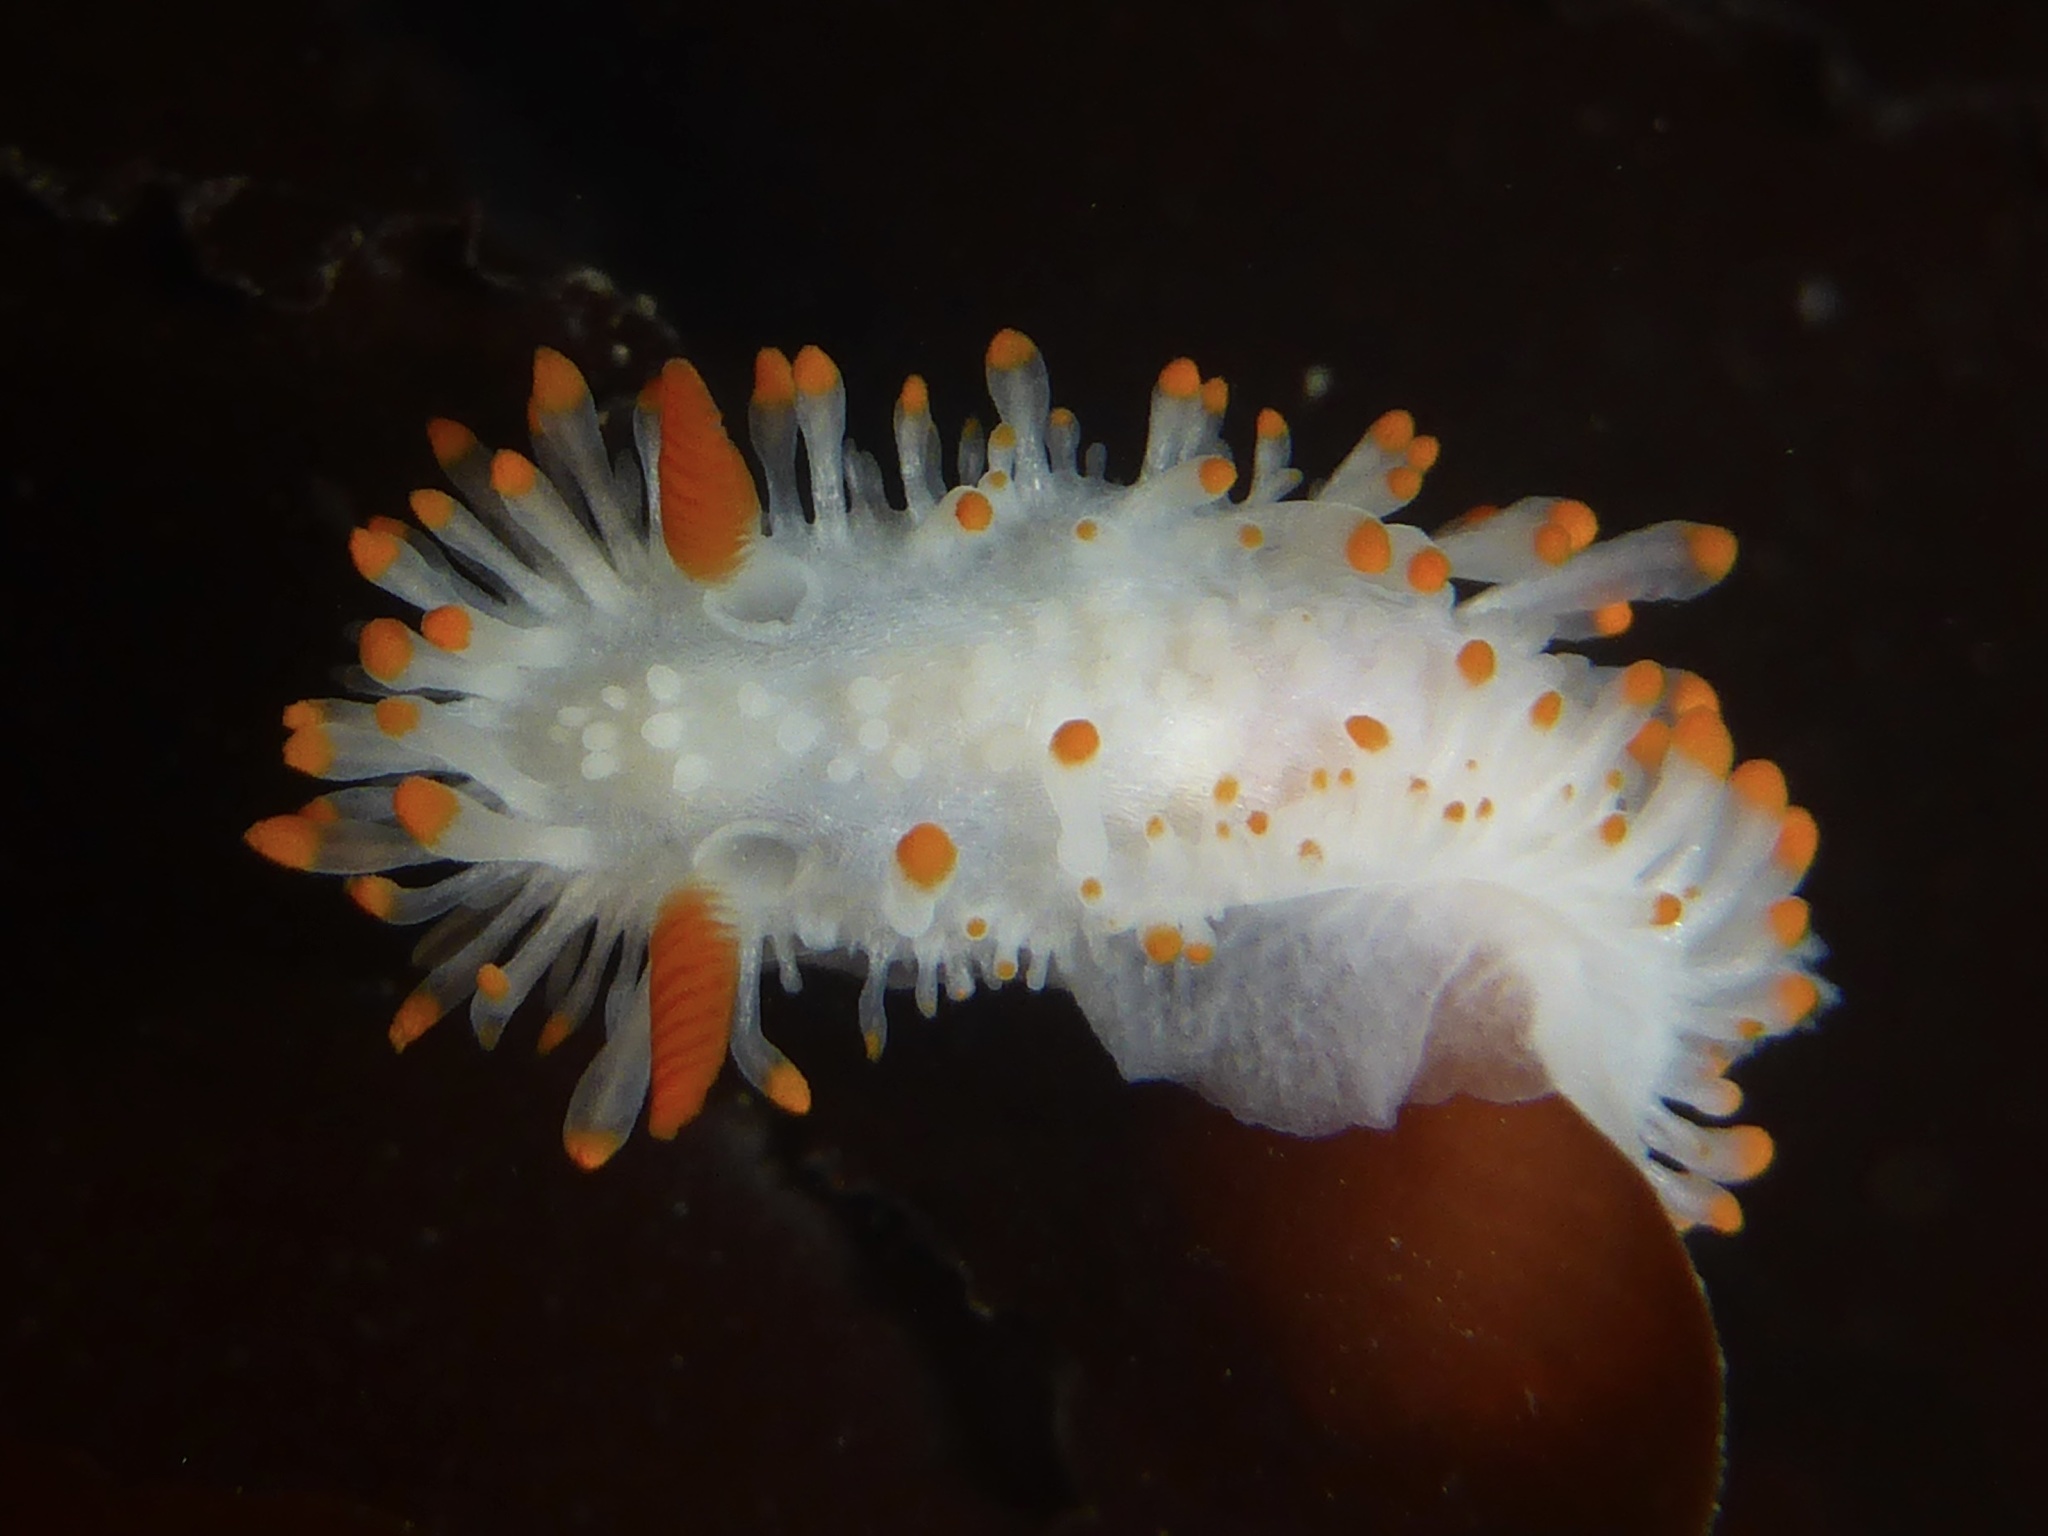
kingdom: Animalia
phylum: Mollusca
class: Gastropoda
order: Nudibranchia
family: Polyceridae
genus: Limacia
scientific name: Limacia cockerelli
